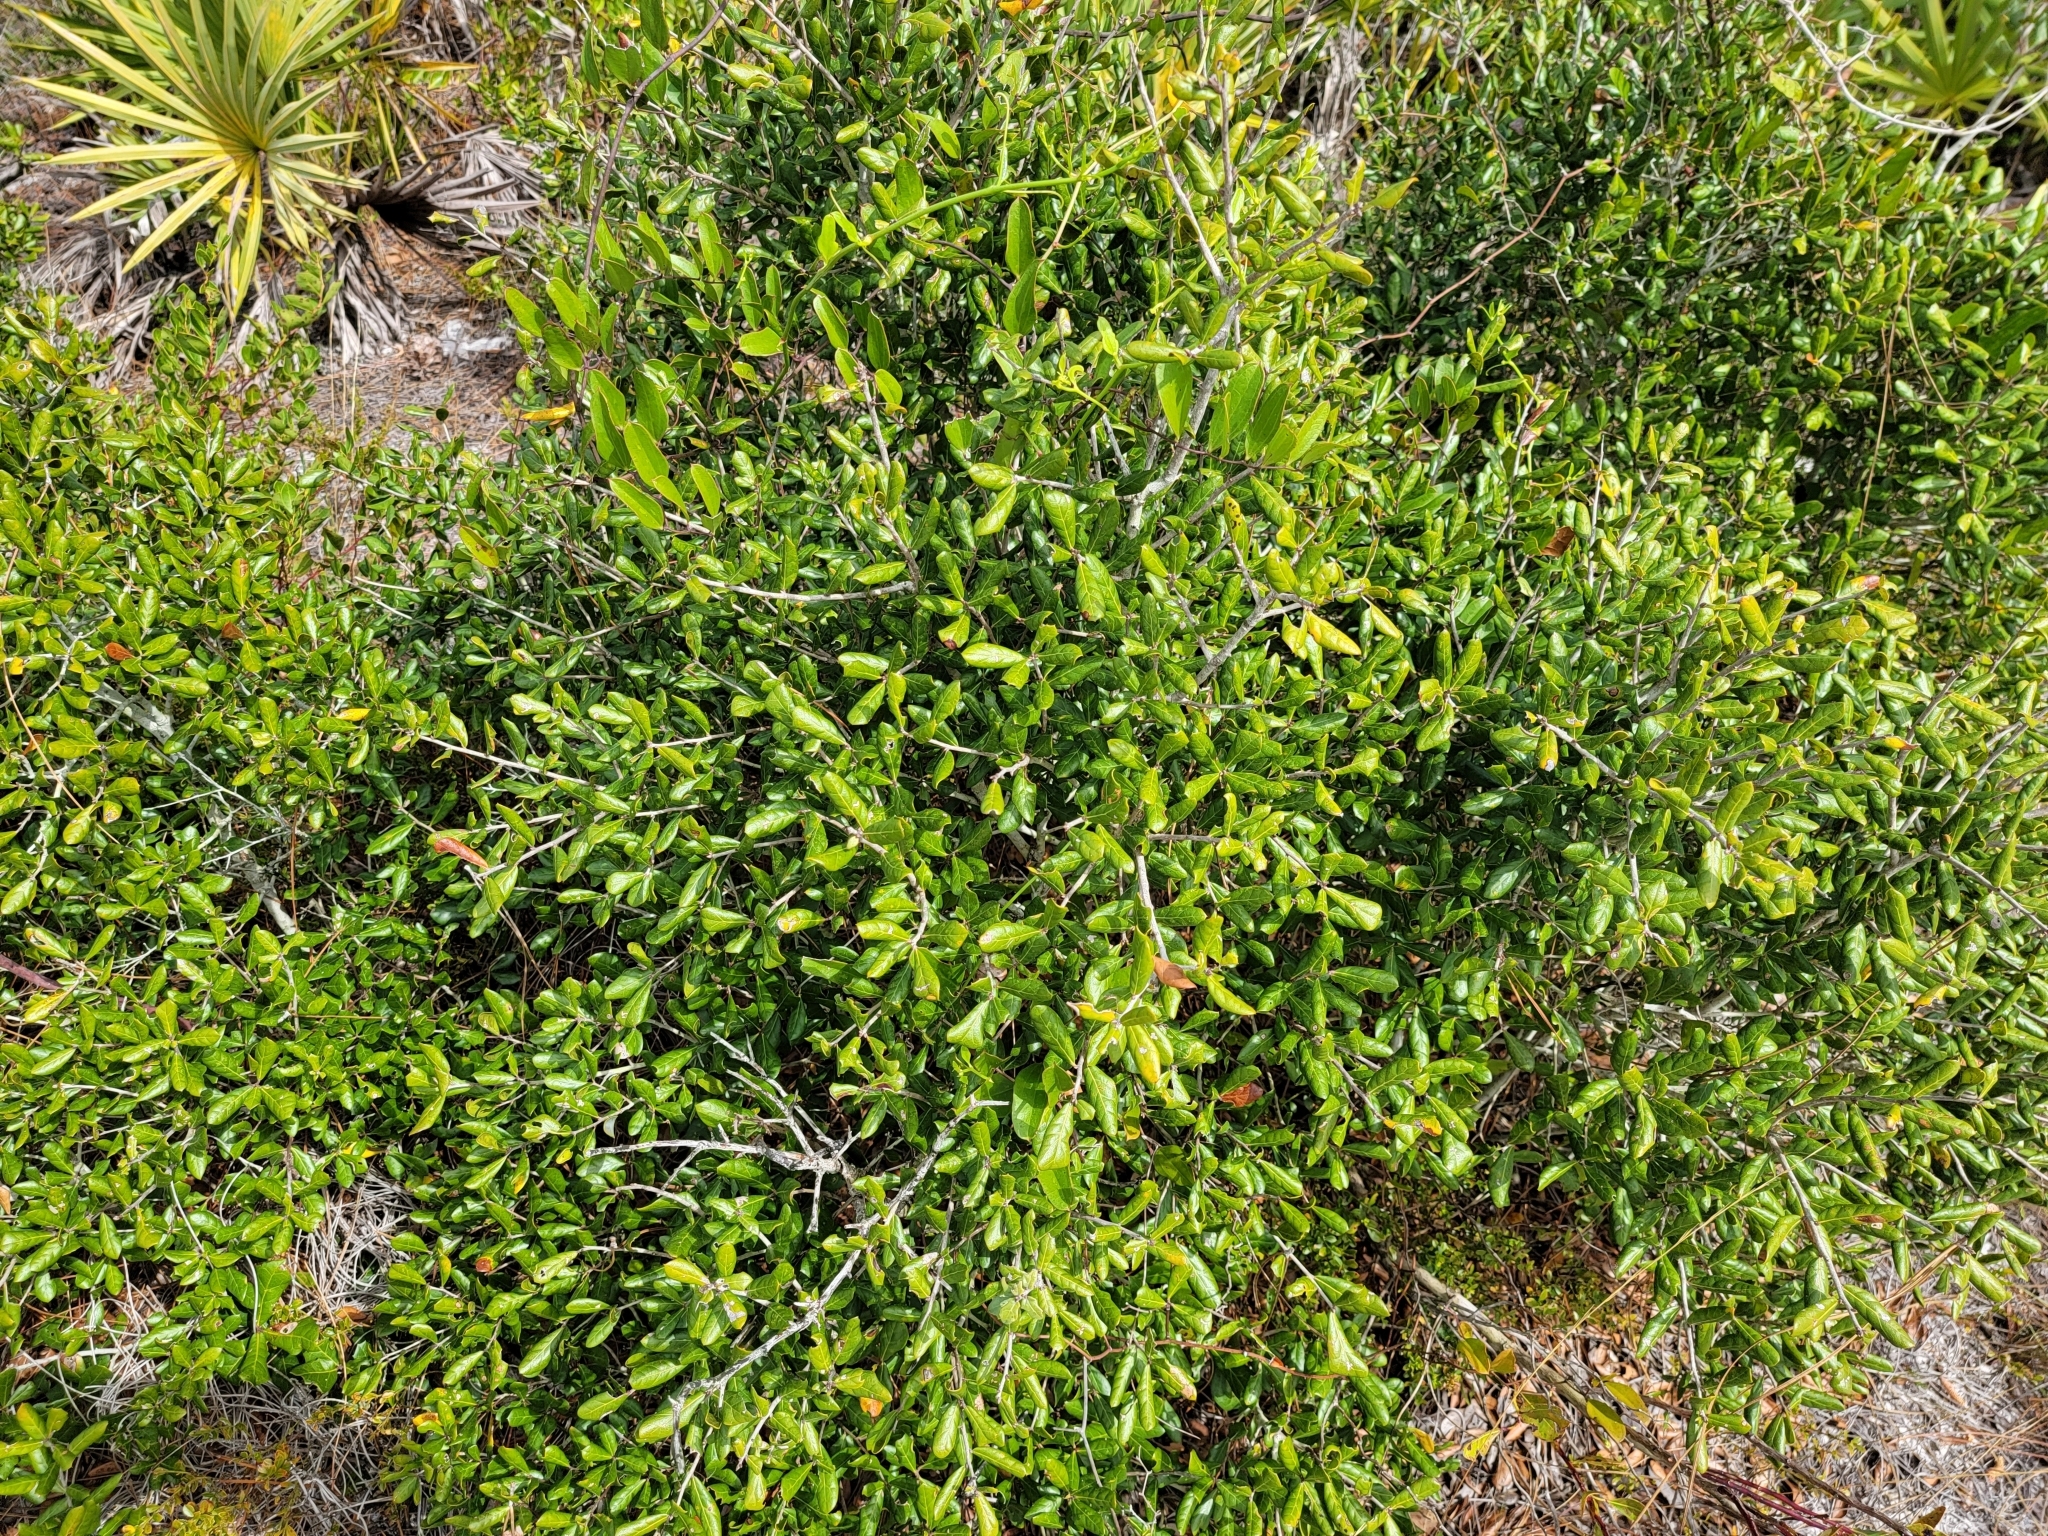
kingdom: Plantae
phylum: Tracheophyta
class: Magnoliopsida
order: Fagales
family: Fagaceae
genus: Quercus
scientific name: Quercus myrtifolia
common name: Myrtle oak
